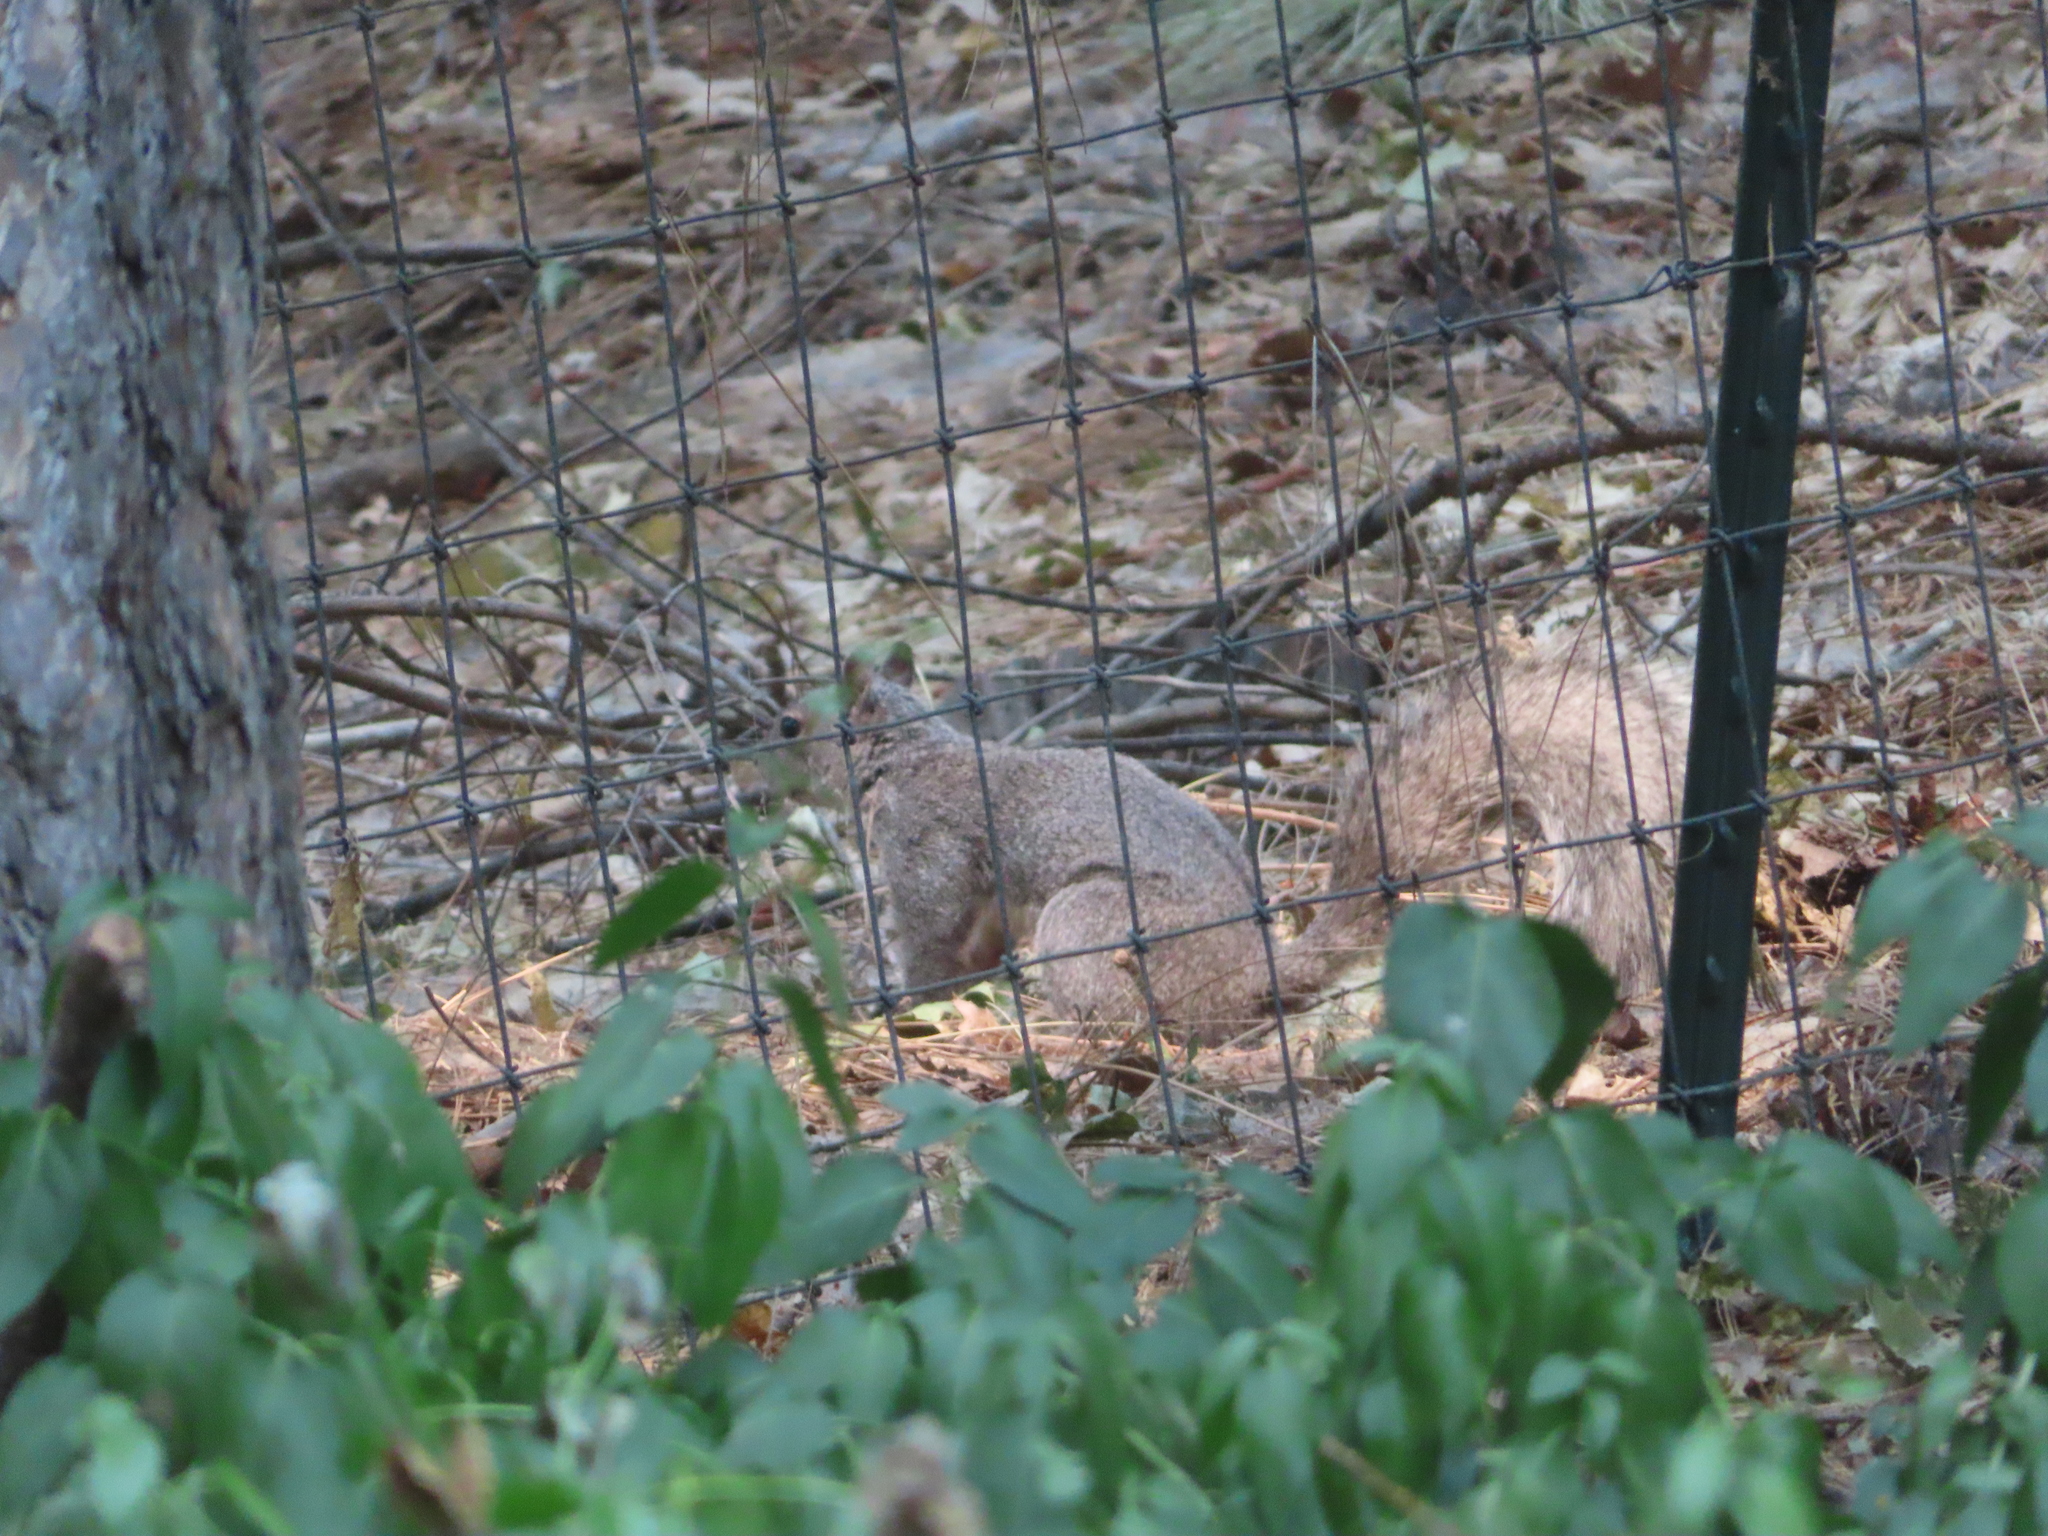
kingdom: Animalia
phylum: Chordata
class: Mammalia
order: Rodentia
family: Sciuridae
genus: Sciurus
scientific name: Sciurus carolinensis
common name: Eastern gray squirrel
